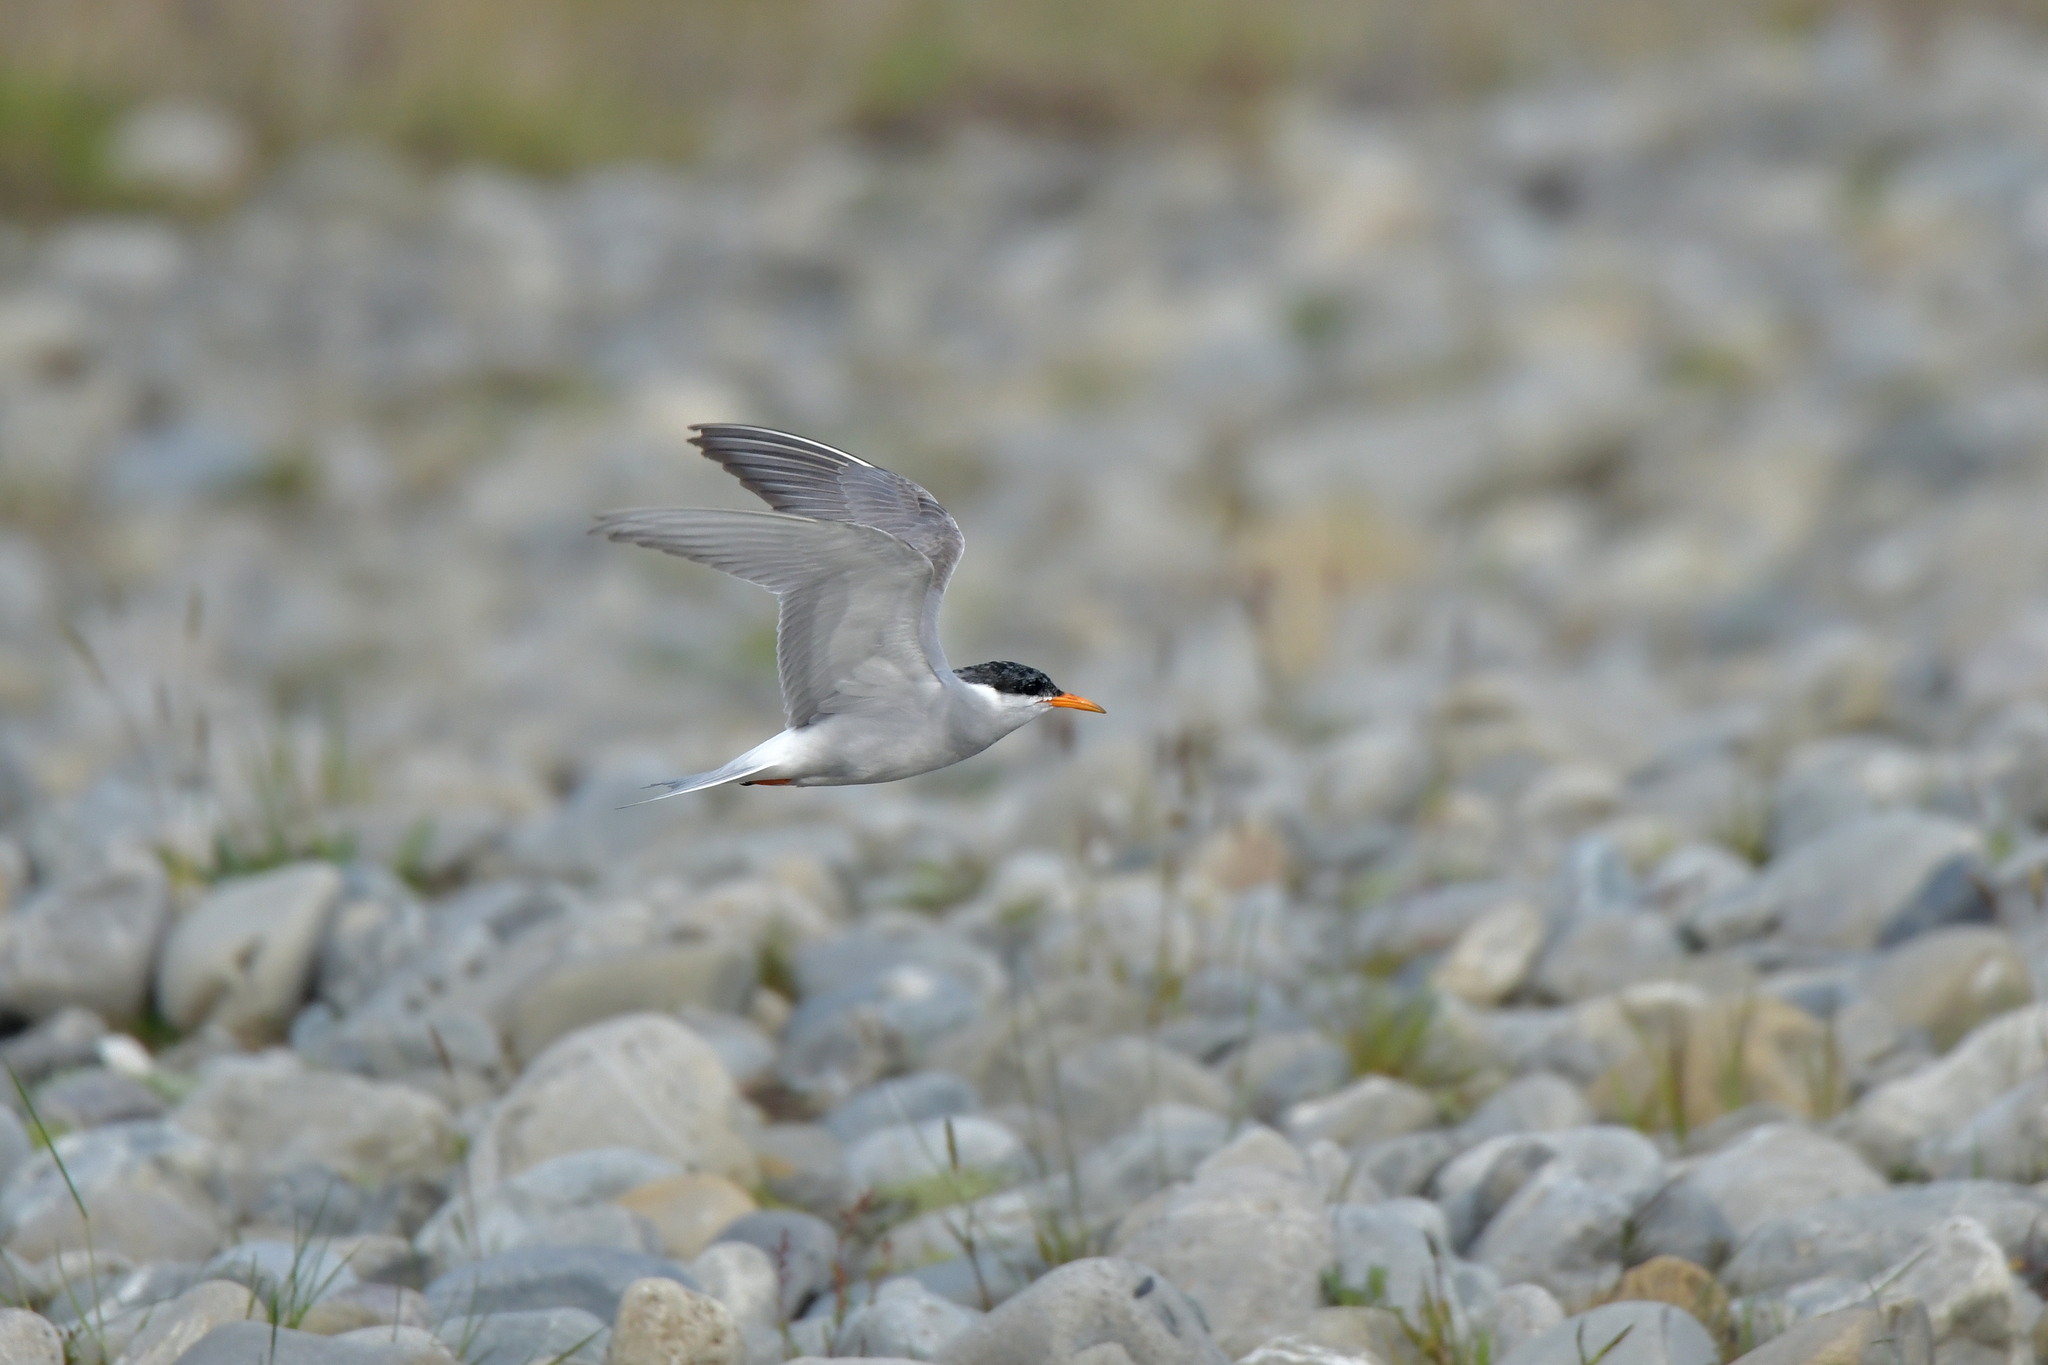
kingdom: Animalia
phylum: Chordata
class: Aves
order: Charadriiformes
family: Laridae
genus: Chlidonias
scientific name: Chlidonias albostriatus
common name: Black-fronted tern
